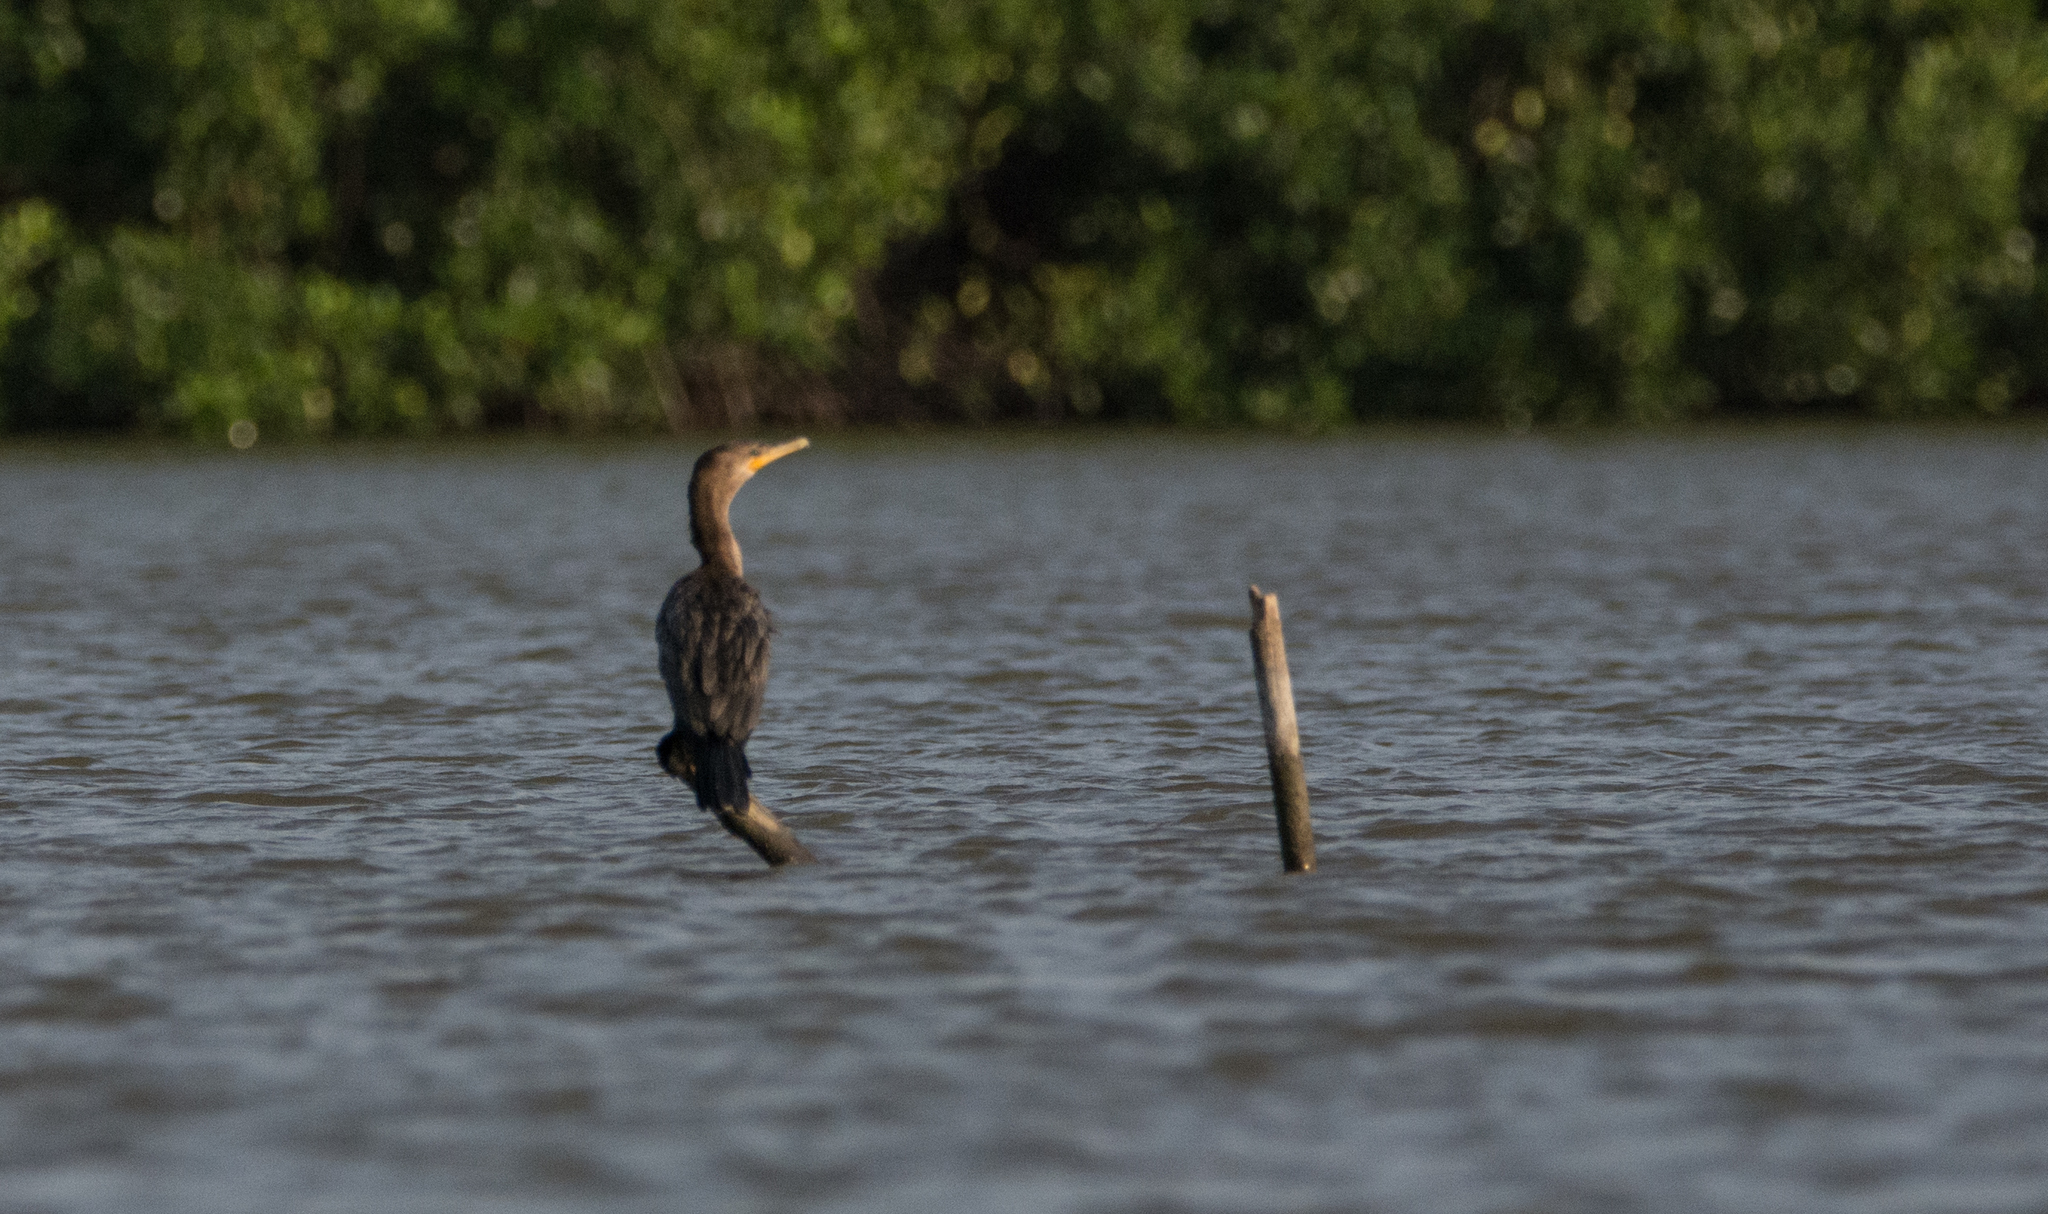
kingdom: Animalia
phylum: Chordata
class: Aves
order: Suliformes
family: Phalacrocoracidae
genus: Phalacrocorax
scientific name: Phalacrocorax brasilianus
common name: Neotropic cormorant
